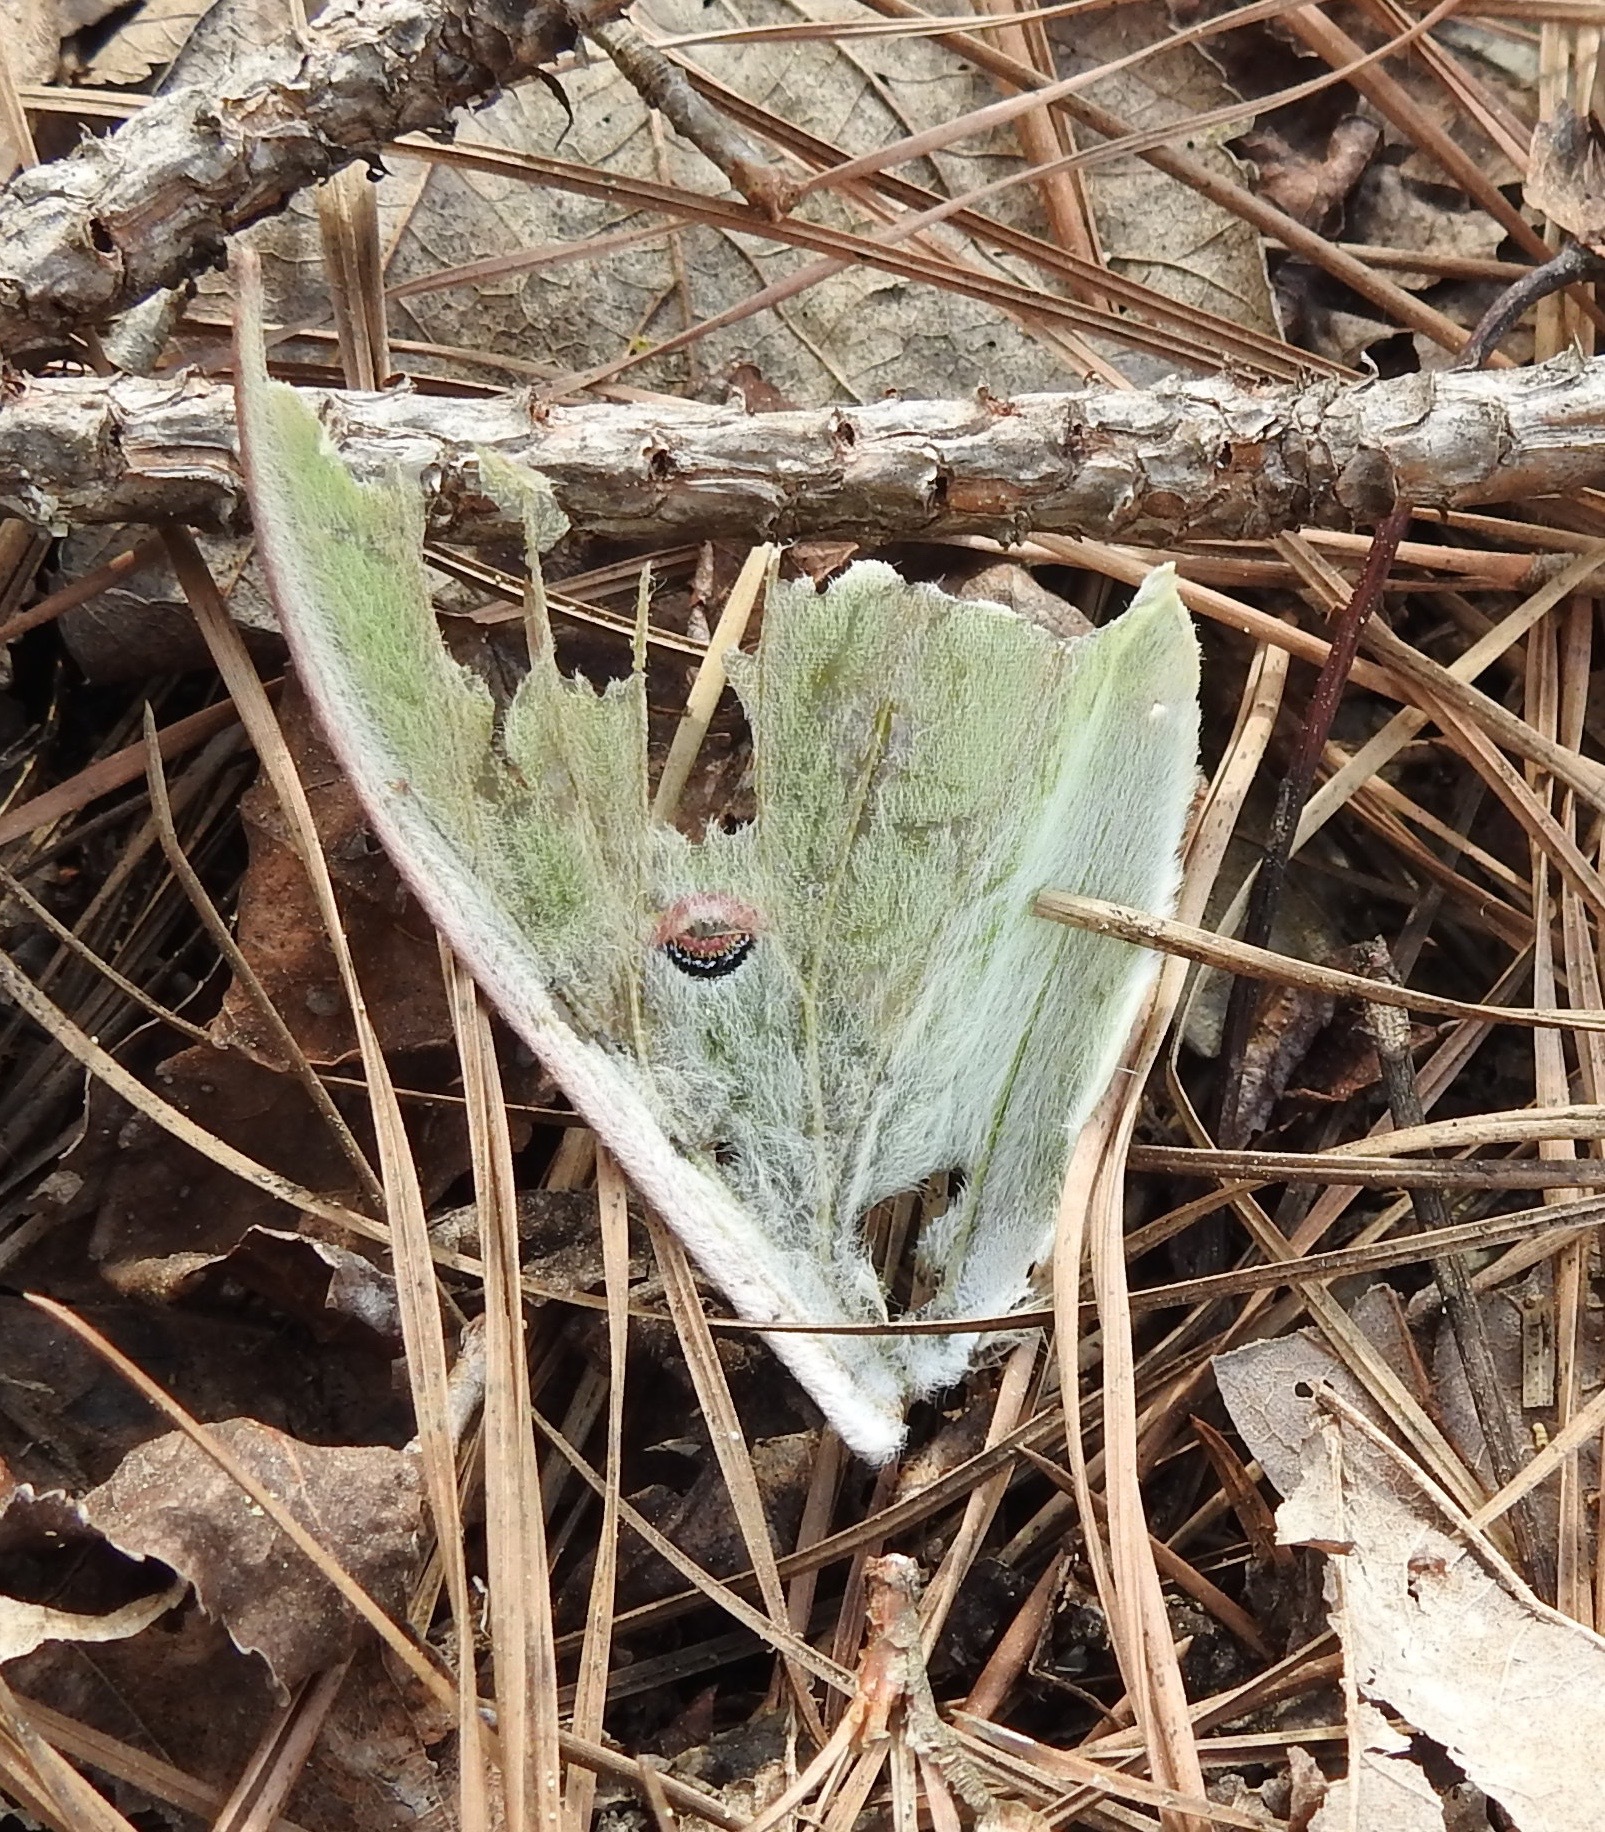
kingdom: Animalia
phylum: Arthropoda
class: Insecta
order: Lepidoptera
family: Saturniidae
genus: Actias
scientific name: Actias luna
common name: Luna moth
